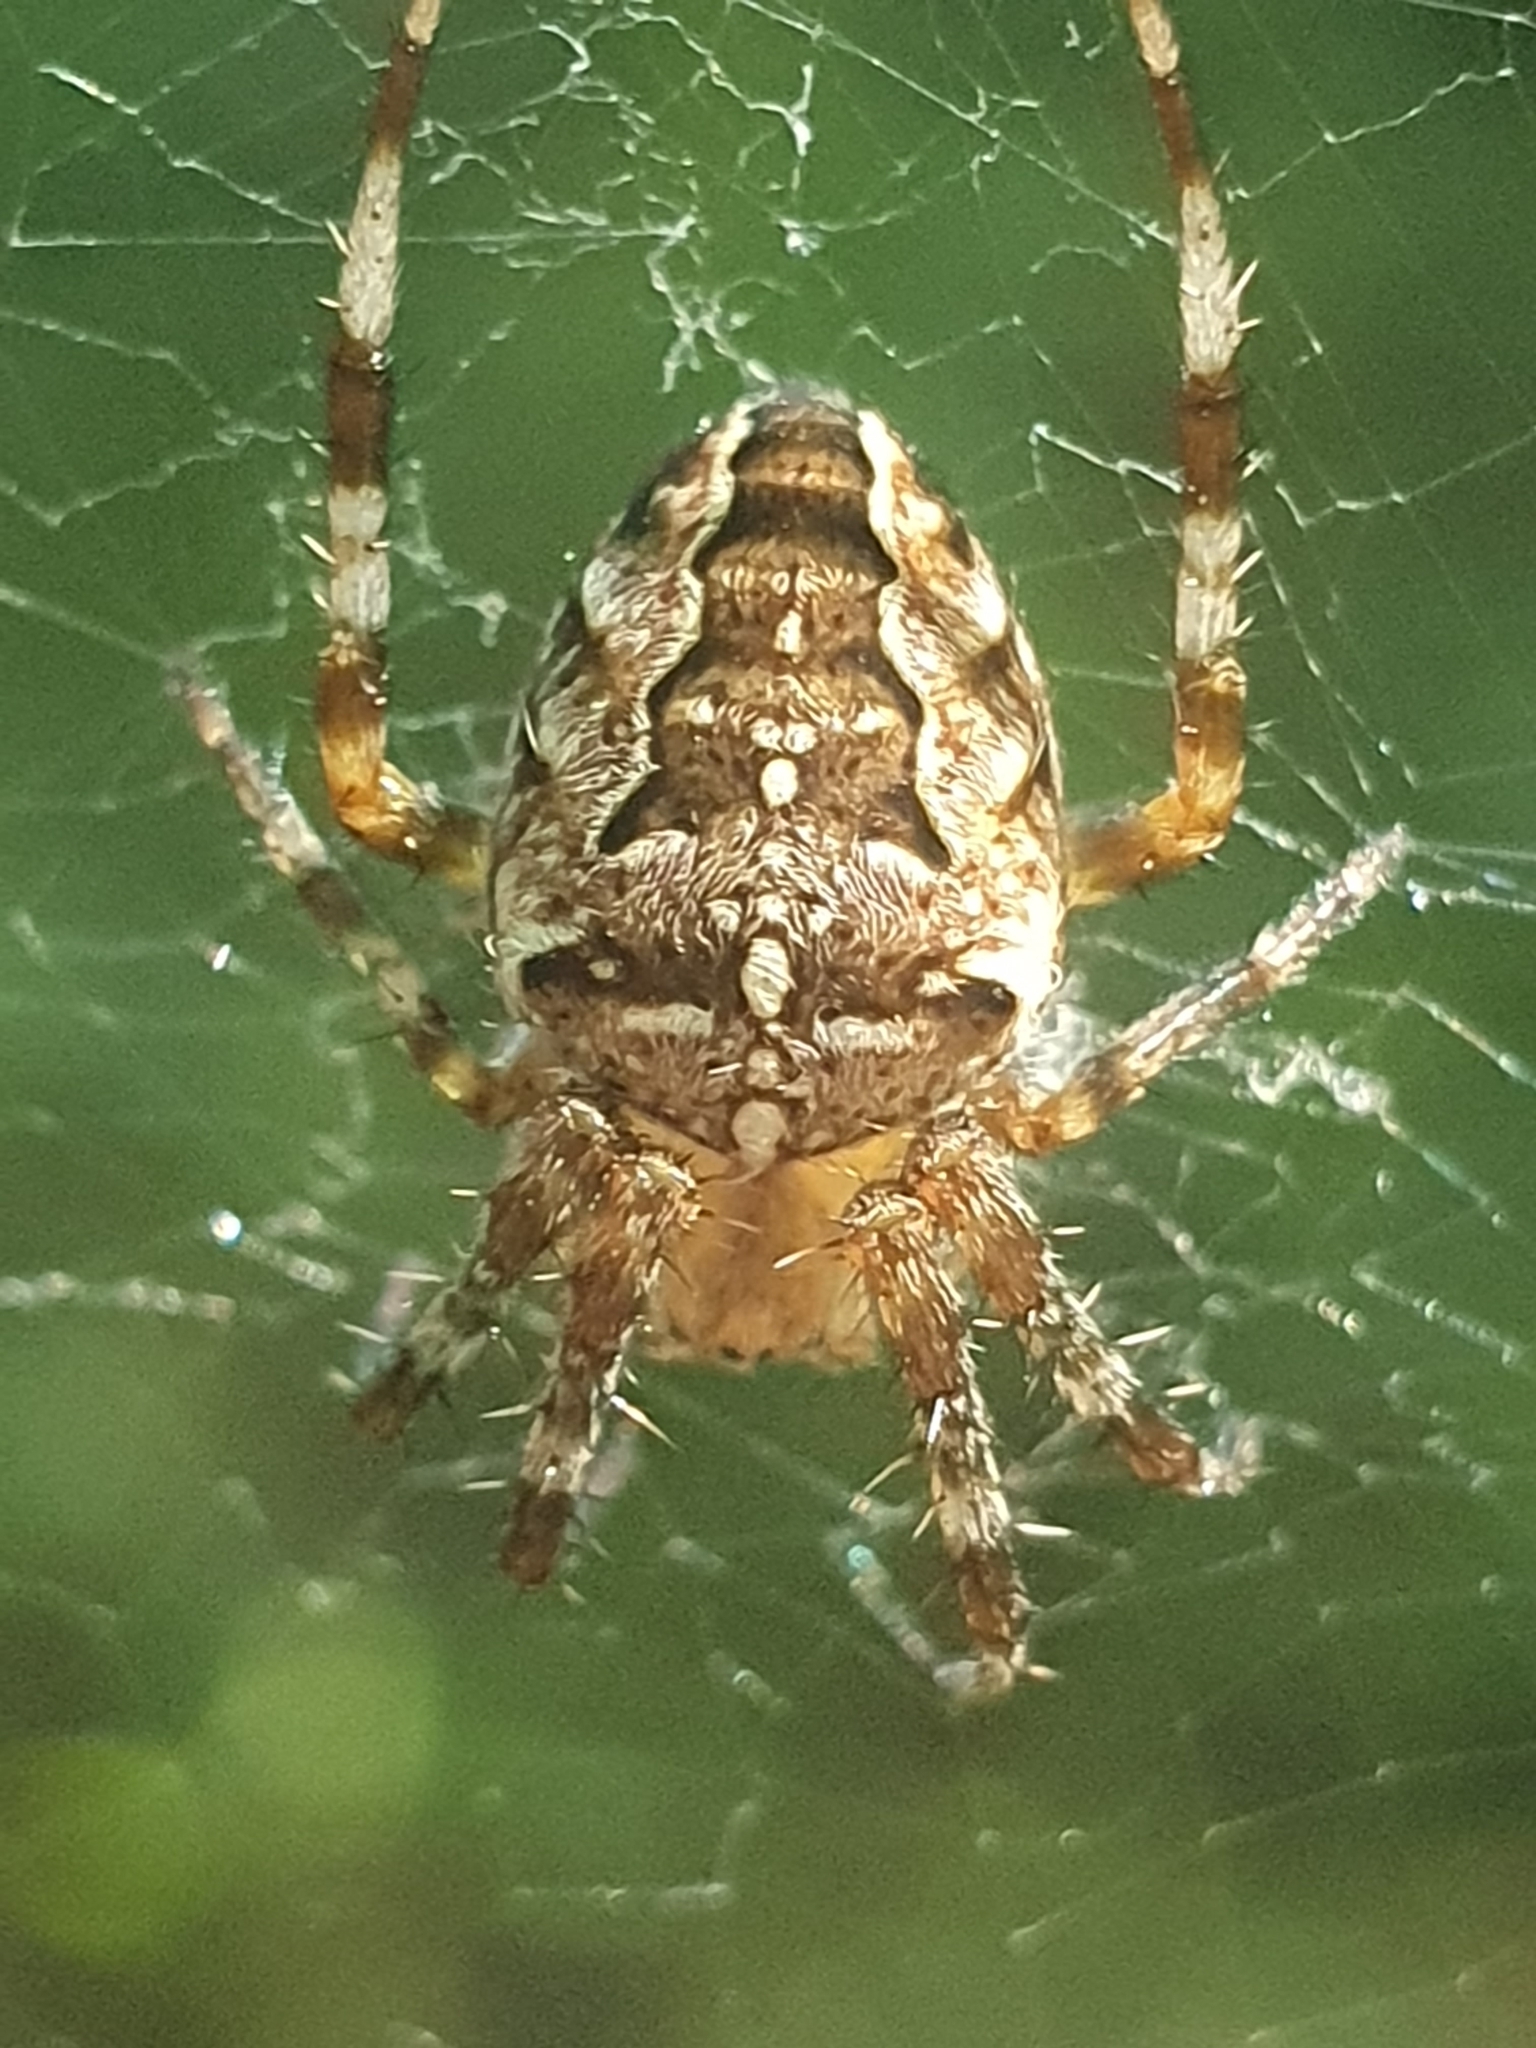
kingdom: Animalia
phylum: Arthropoda
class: Arachnida
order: Araneae
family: Araneidae
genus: Araneus
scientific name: Araneus diadematus
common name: Cross orbweaver
